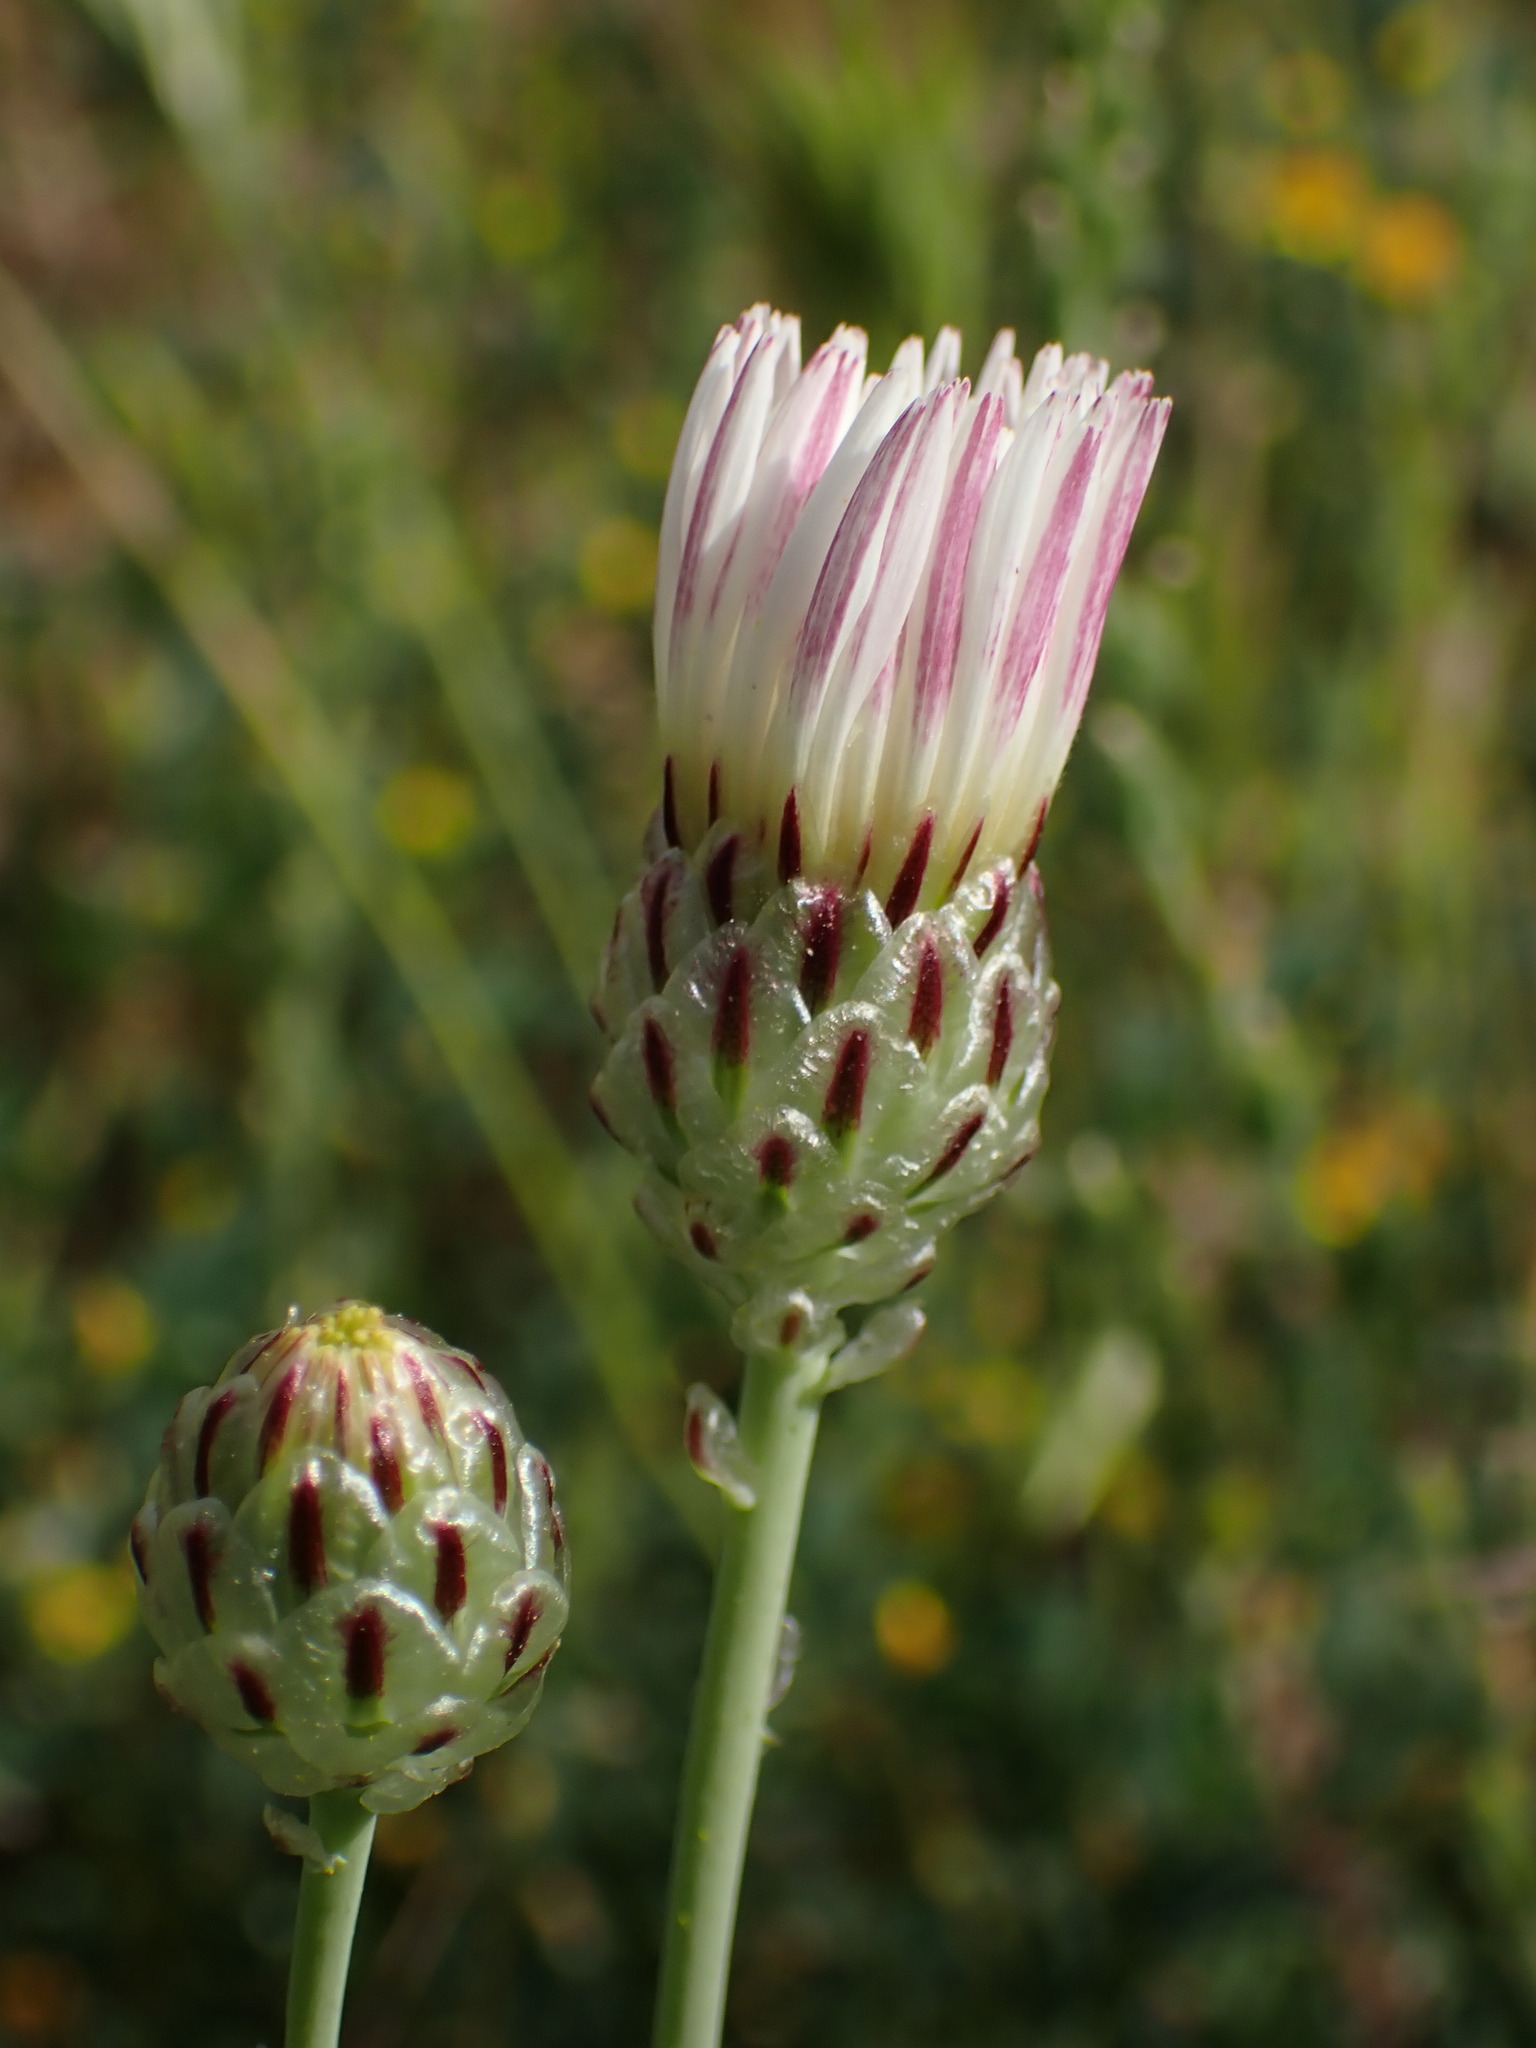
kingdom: Plantae
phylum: Tracheophyta
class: Magnoliopsida
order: Asterales
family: Asteraceae
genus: Malacothrix
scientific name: Malacothrix coulteri
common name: Snake's-head
